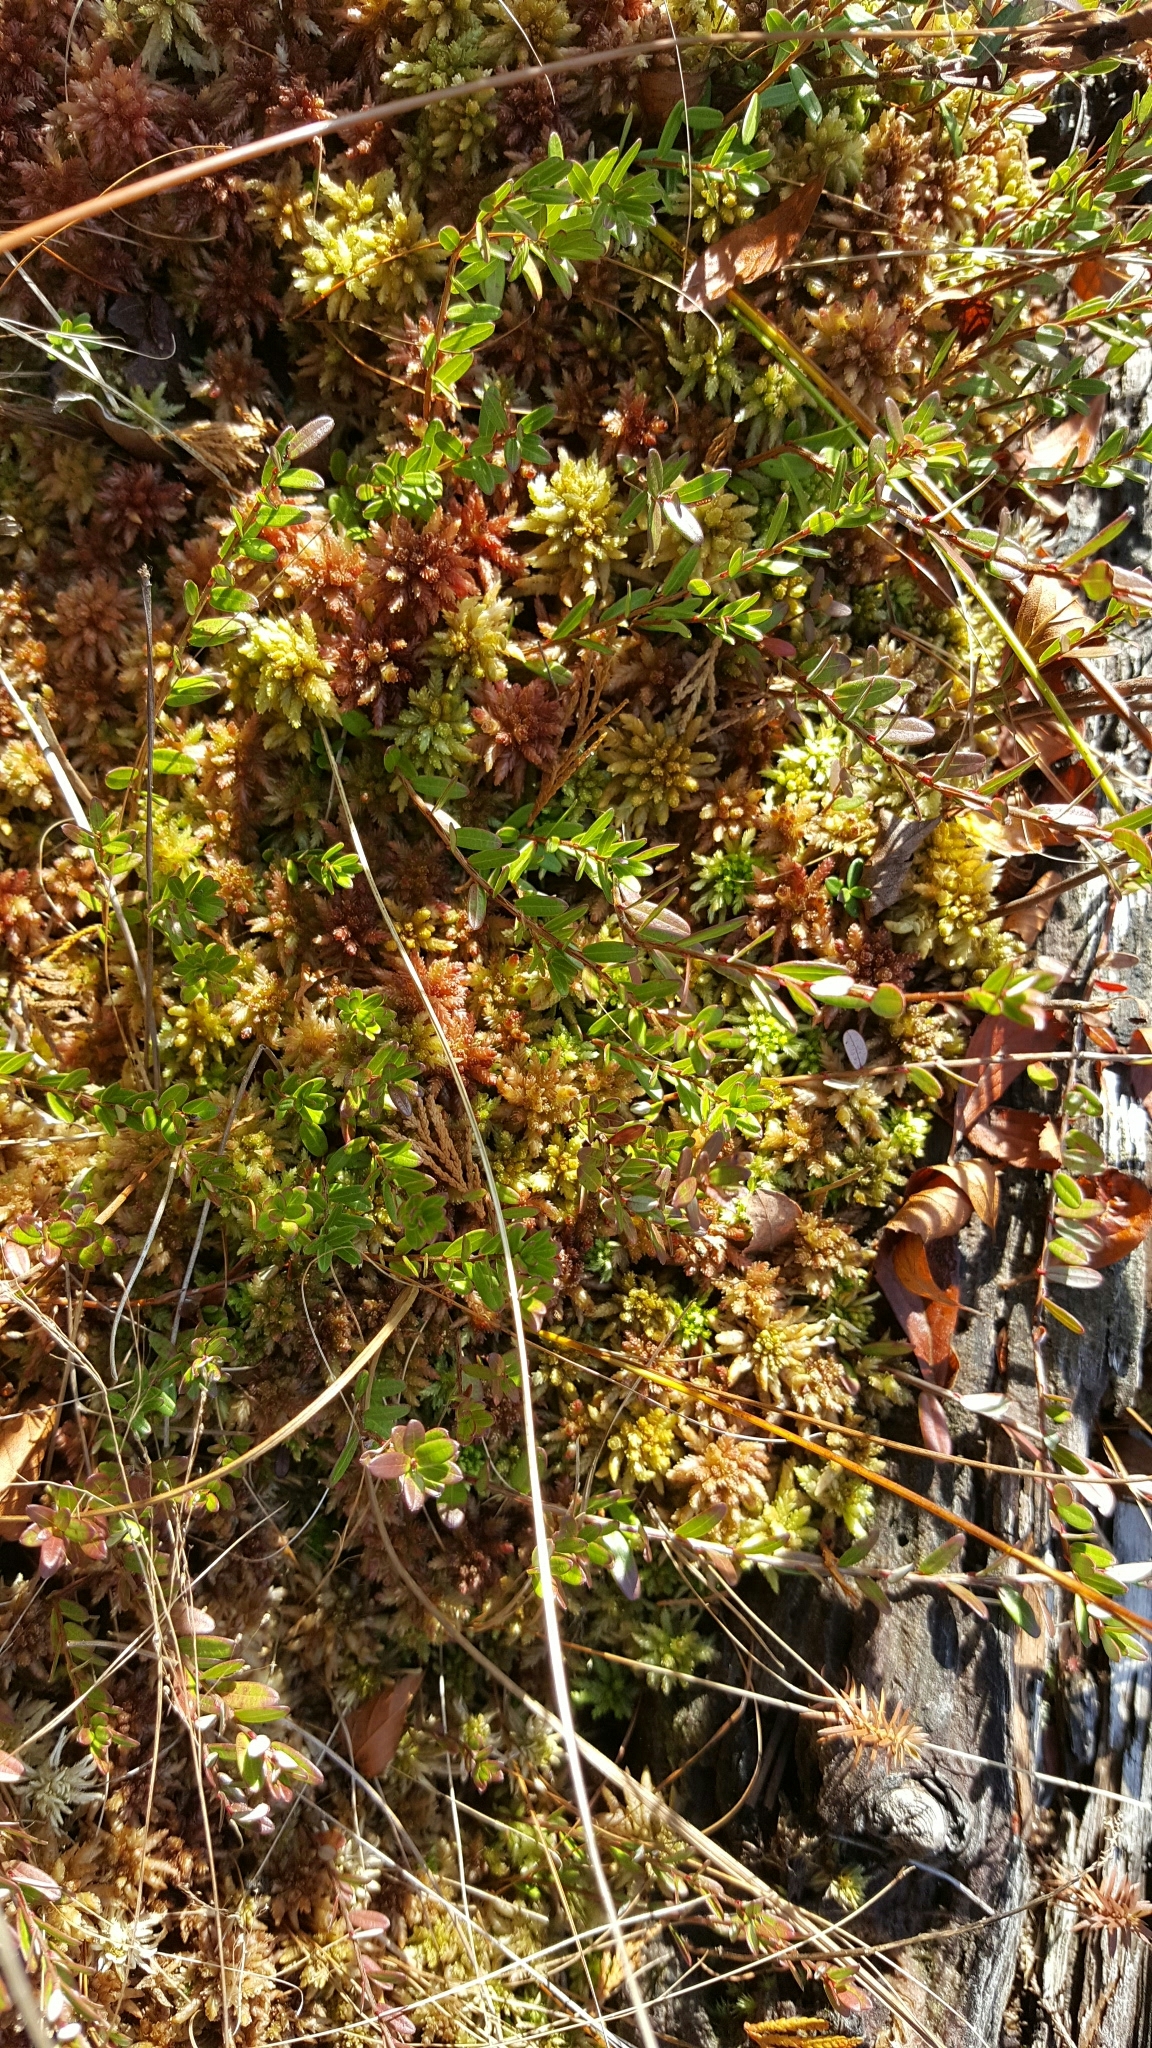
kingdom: Plantae
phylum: Tracheophyta
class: Magnoliopsida
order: Ericales
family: Ericaceae
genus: Vaccinium
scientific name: Vaccinium macrocarpon
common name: American cranberry
